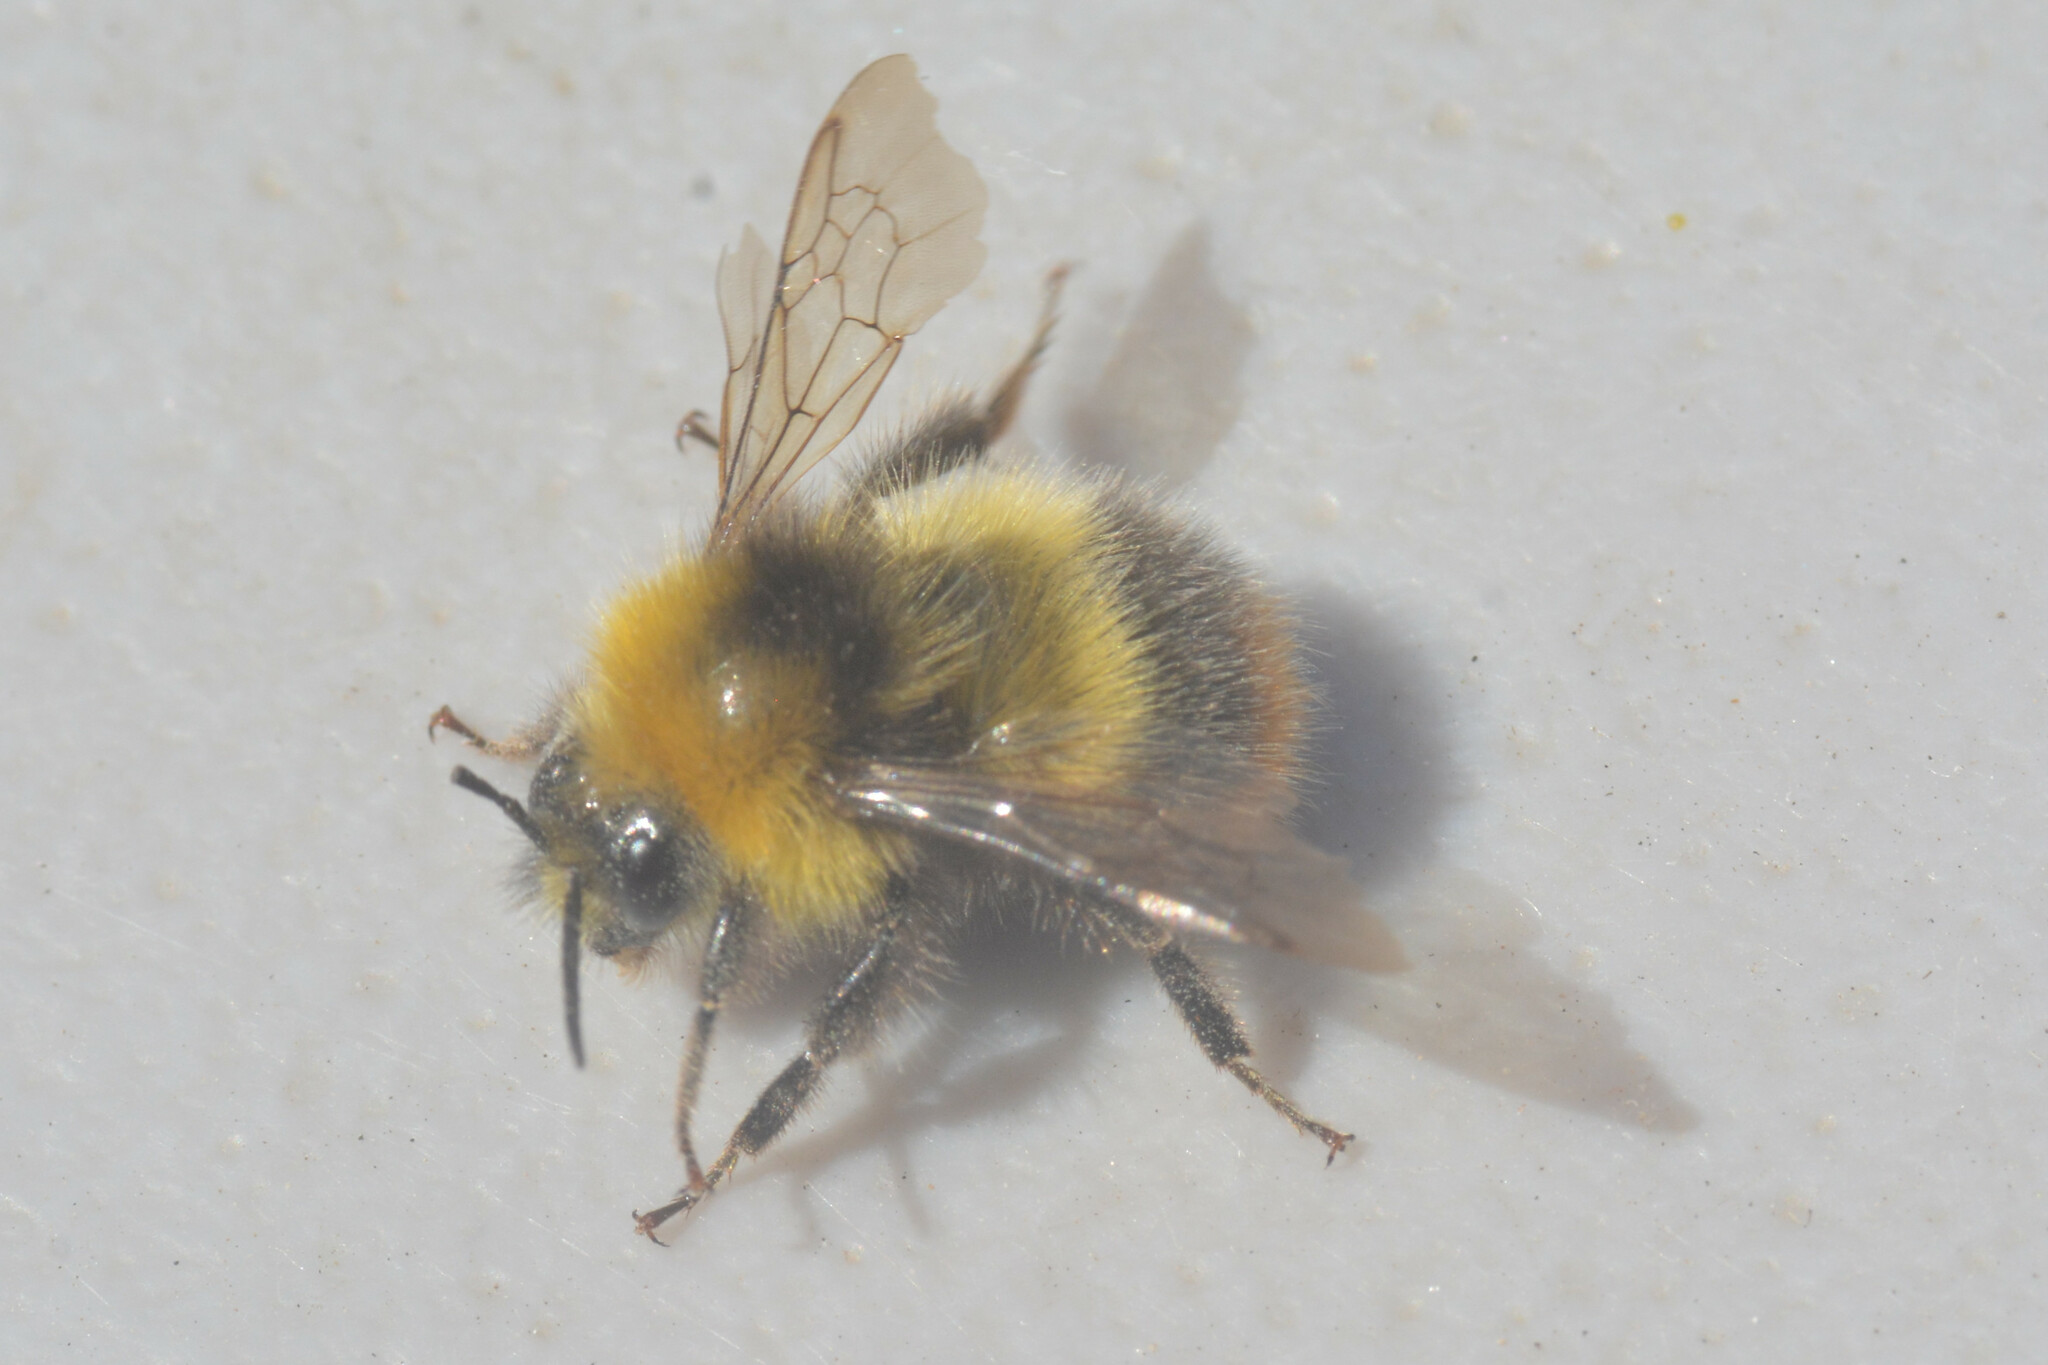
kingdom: Animalia
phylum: Arthropoda
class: Insecta
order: Hymenoptera
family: Apidae
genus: Bombus
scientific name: Bombus pratorum
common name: Early humble-bee
